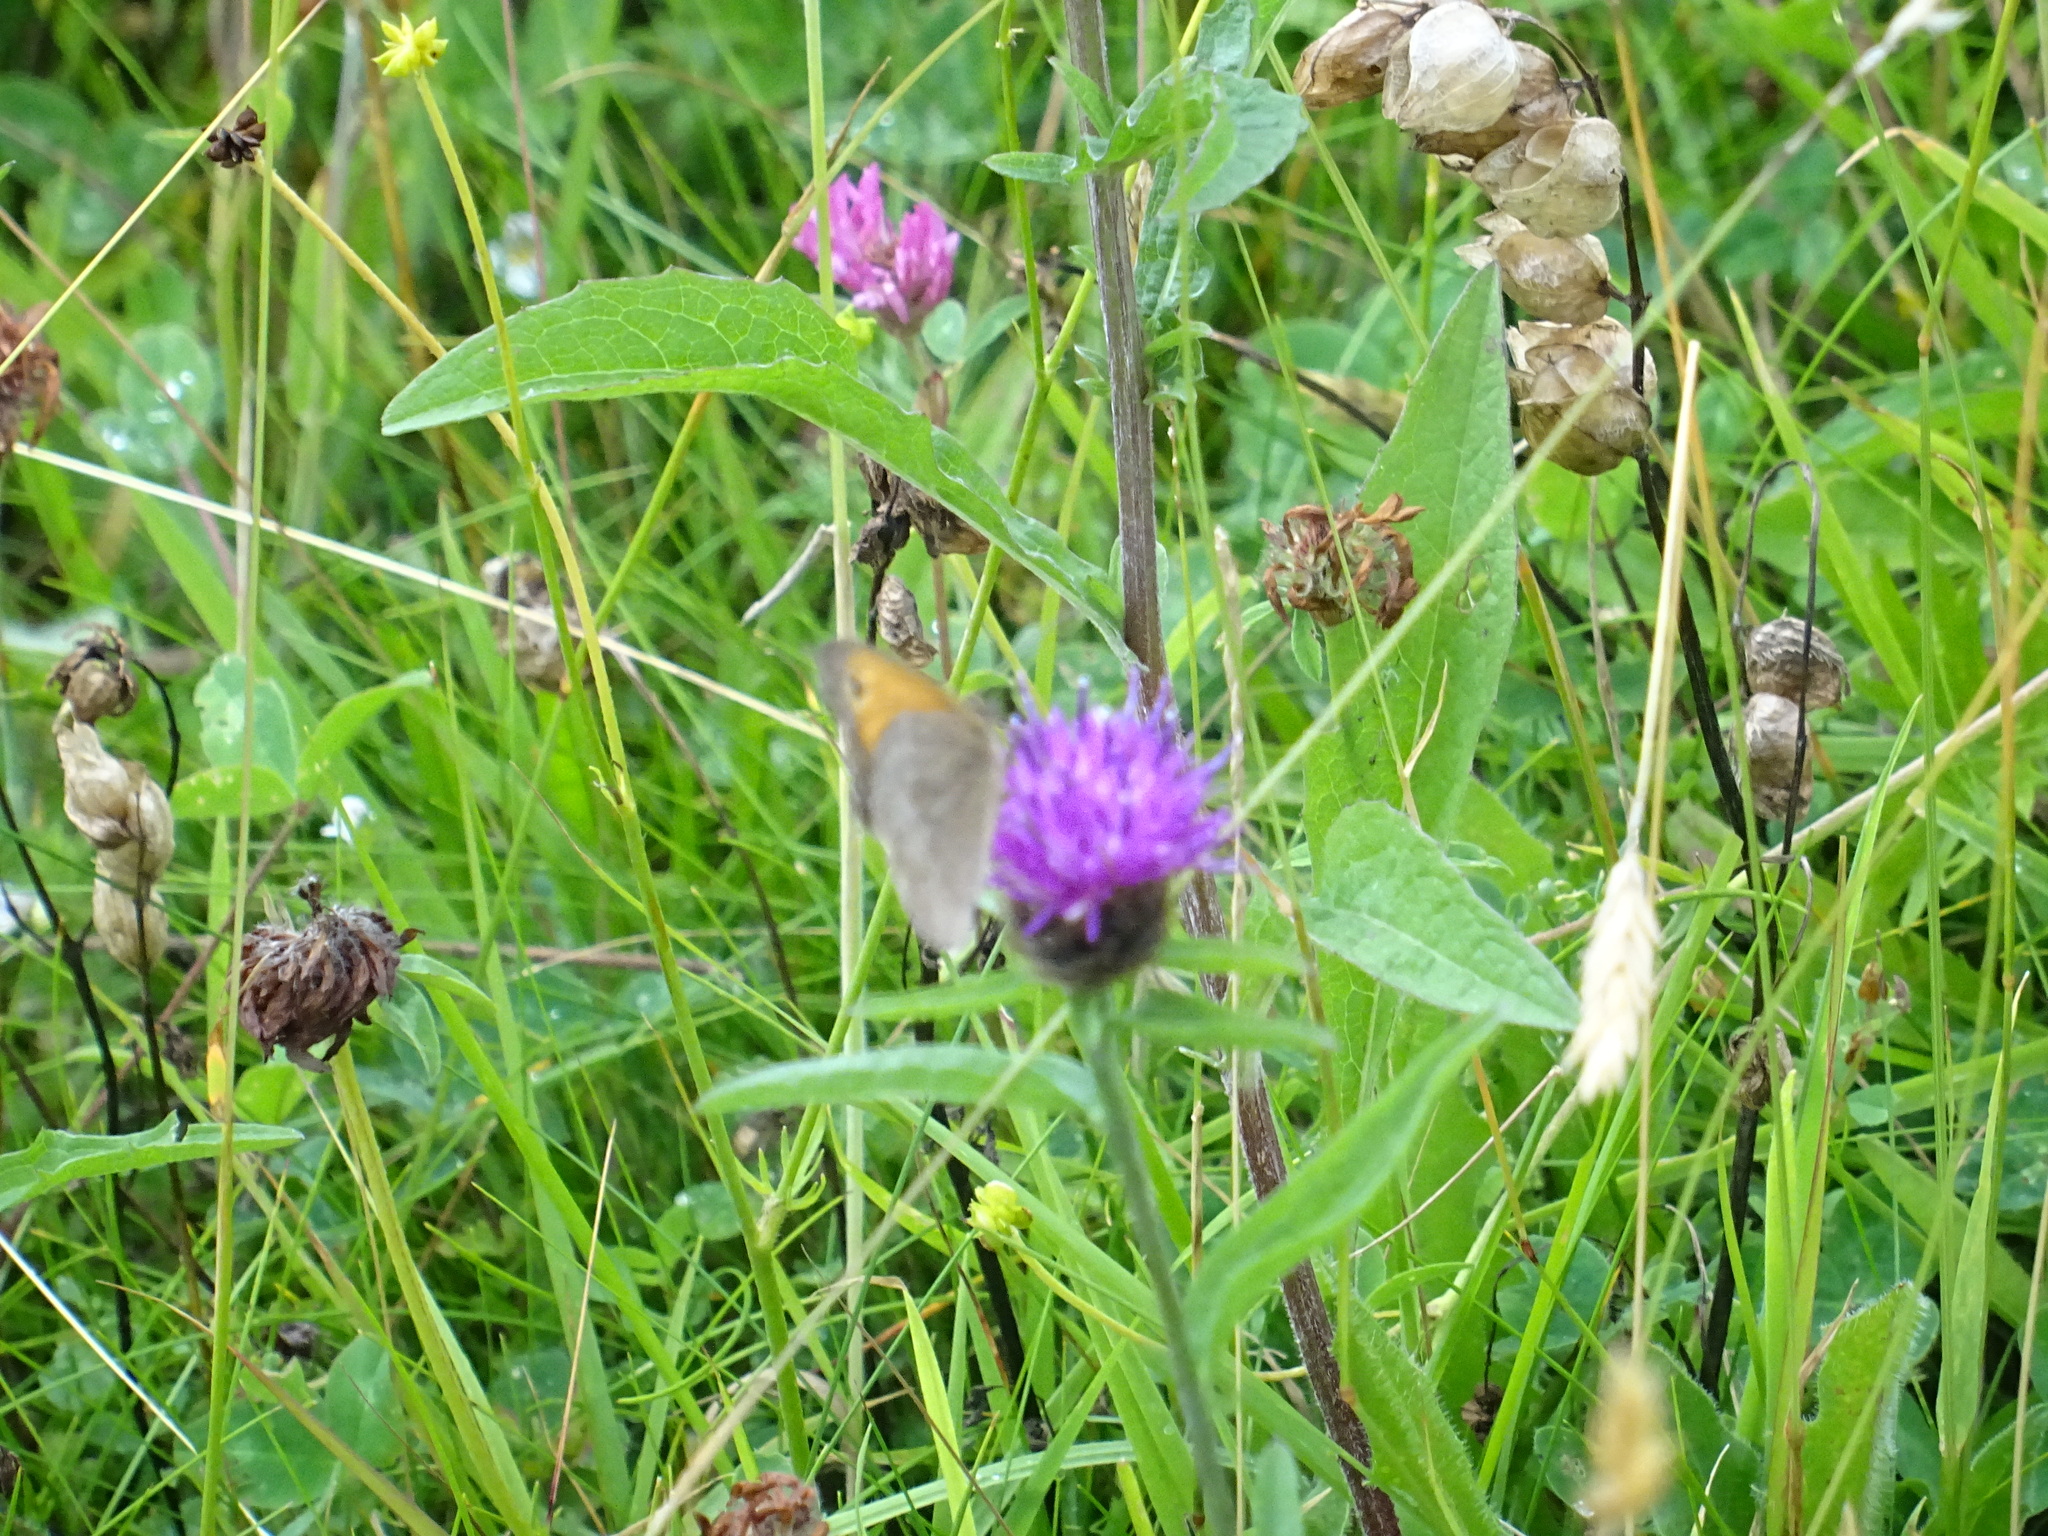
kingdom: Animalia
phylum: Arthropoda
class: Insecta
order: Lepidoptera
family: Nymphalidae
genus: Maniola
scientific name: Maniola jurtina
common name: Meadow brown
